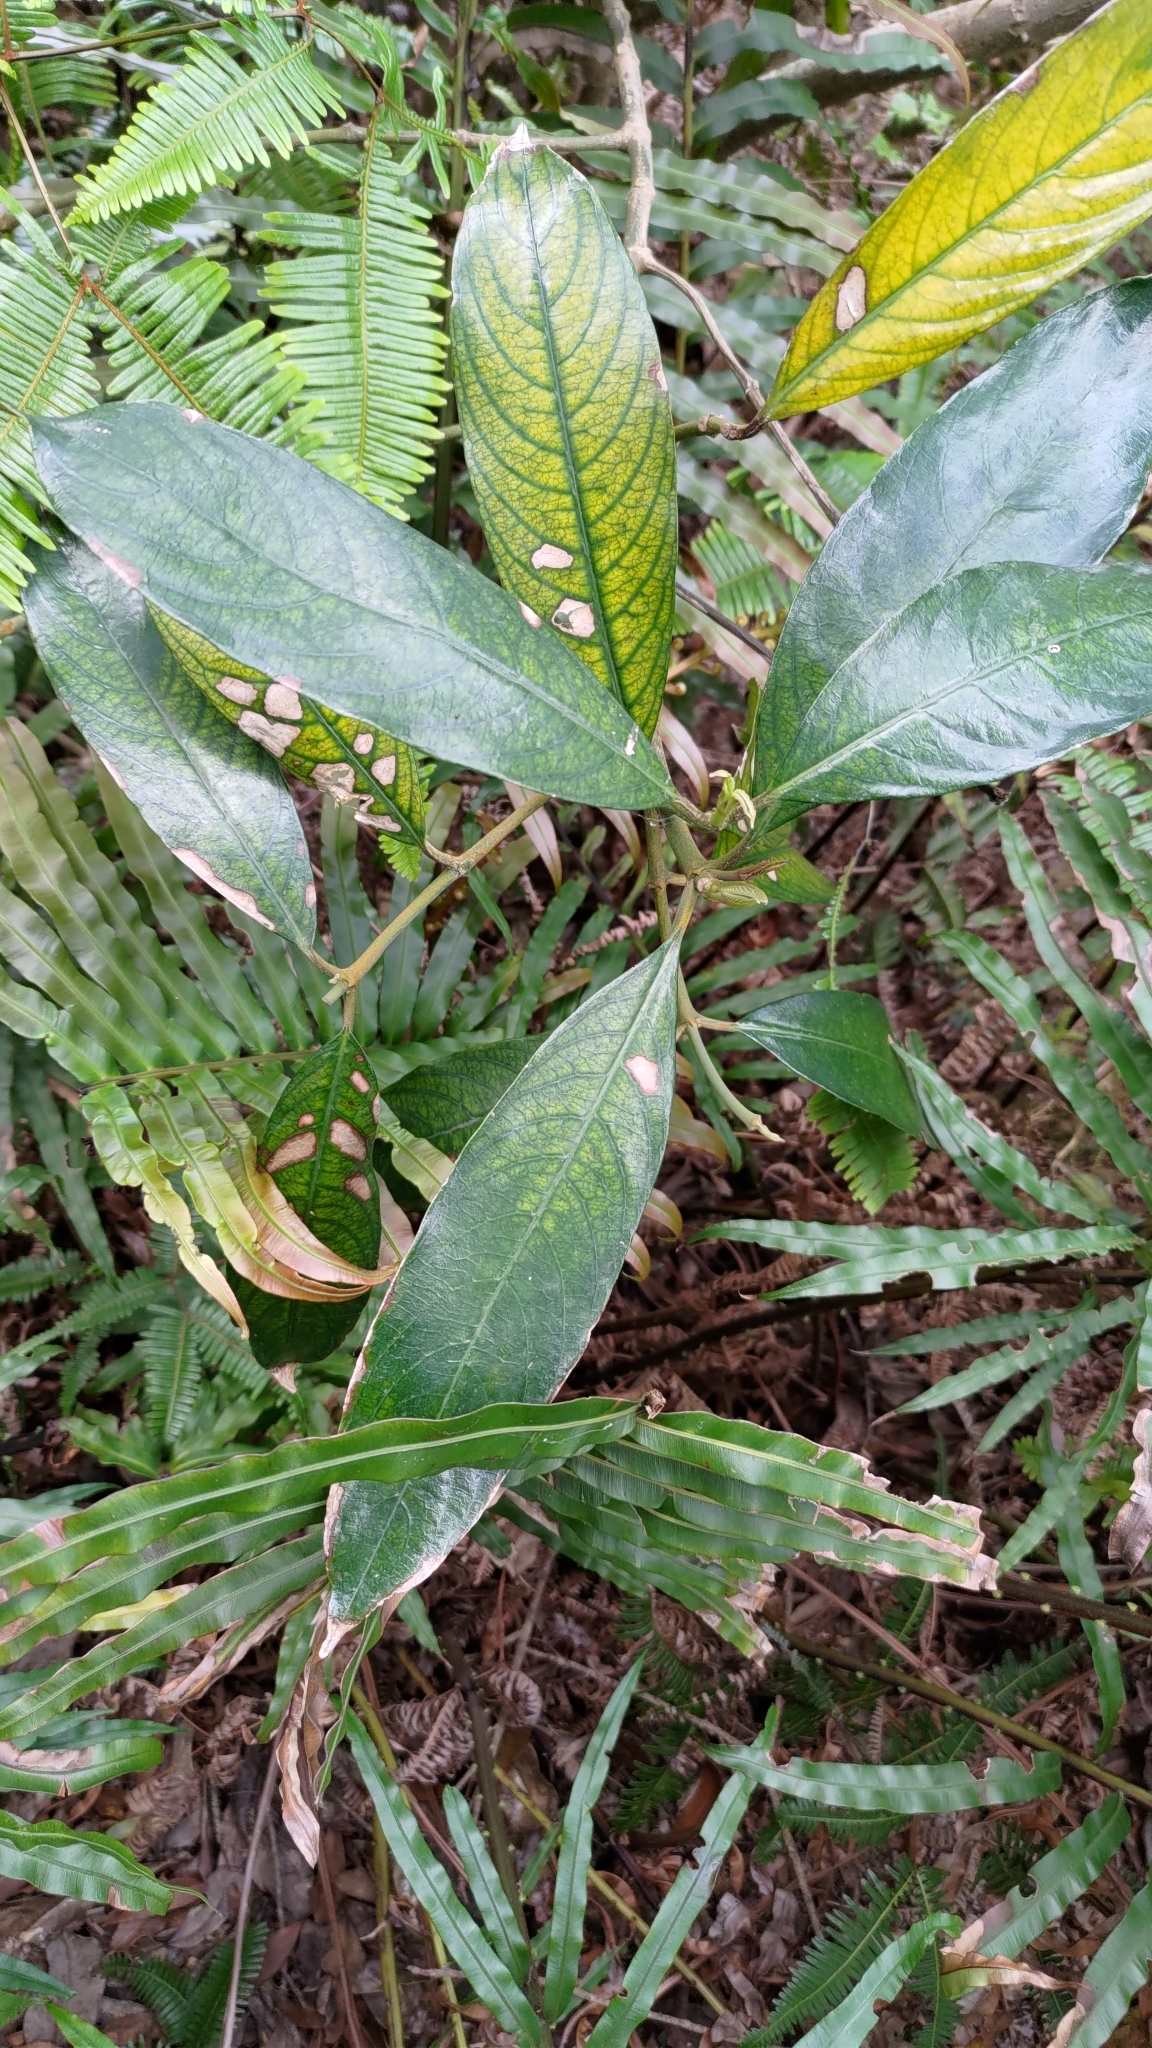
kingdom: Plantae
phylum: Tracheophyta
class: Magnoliopsida
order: Gentianales
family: Rubiaceae
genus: Lasianthus
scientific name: Lasianthus chinensis
